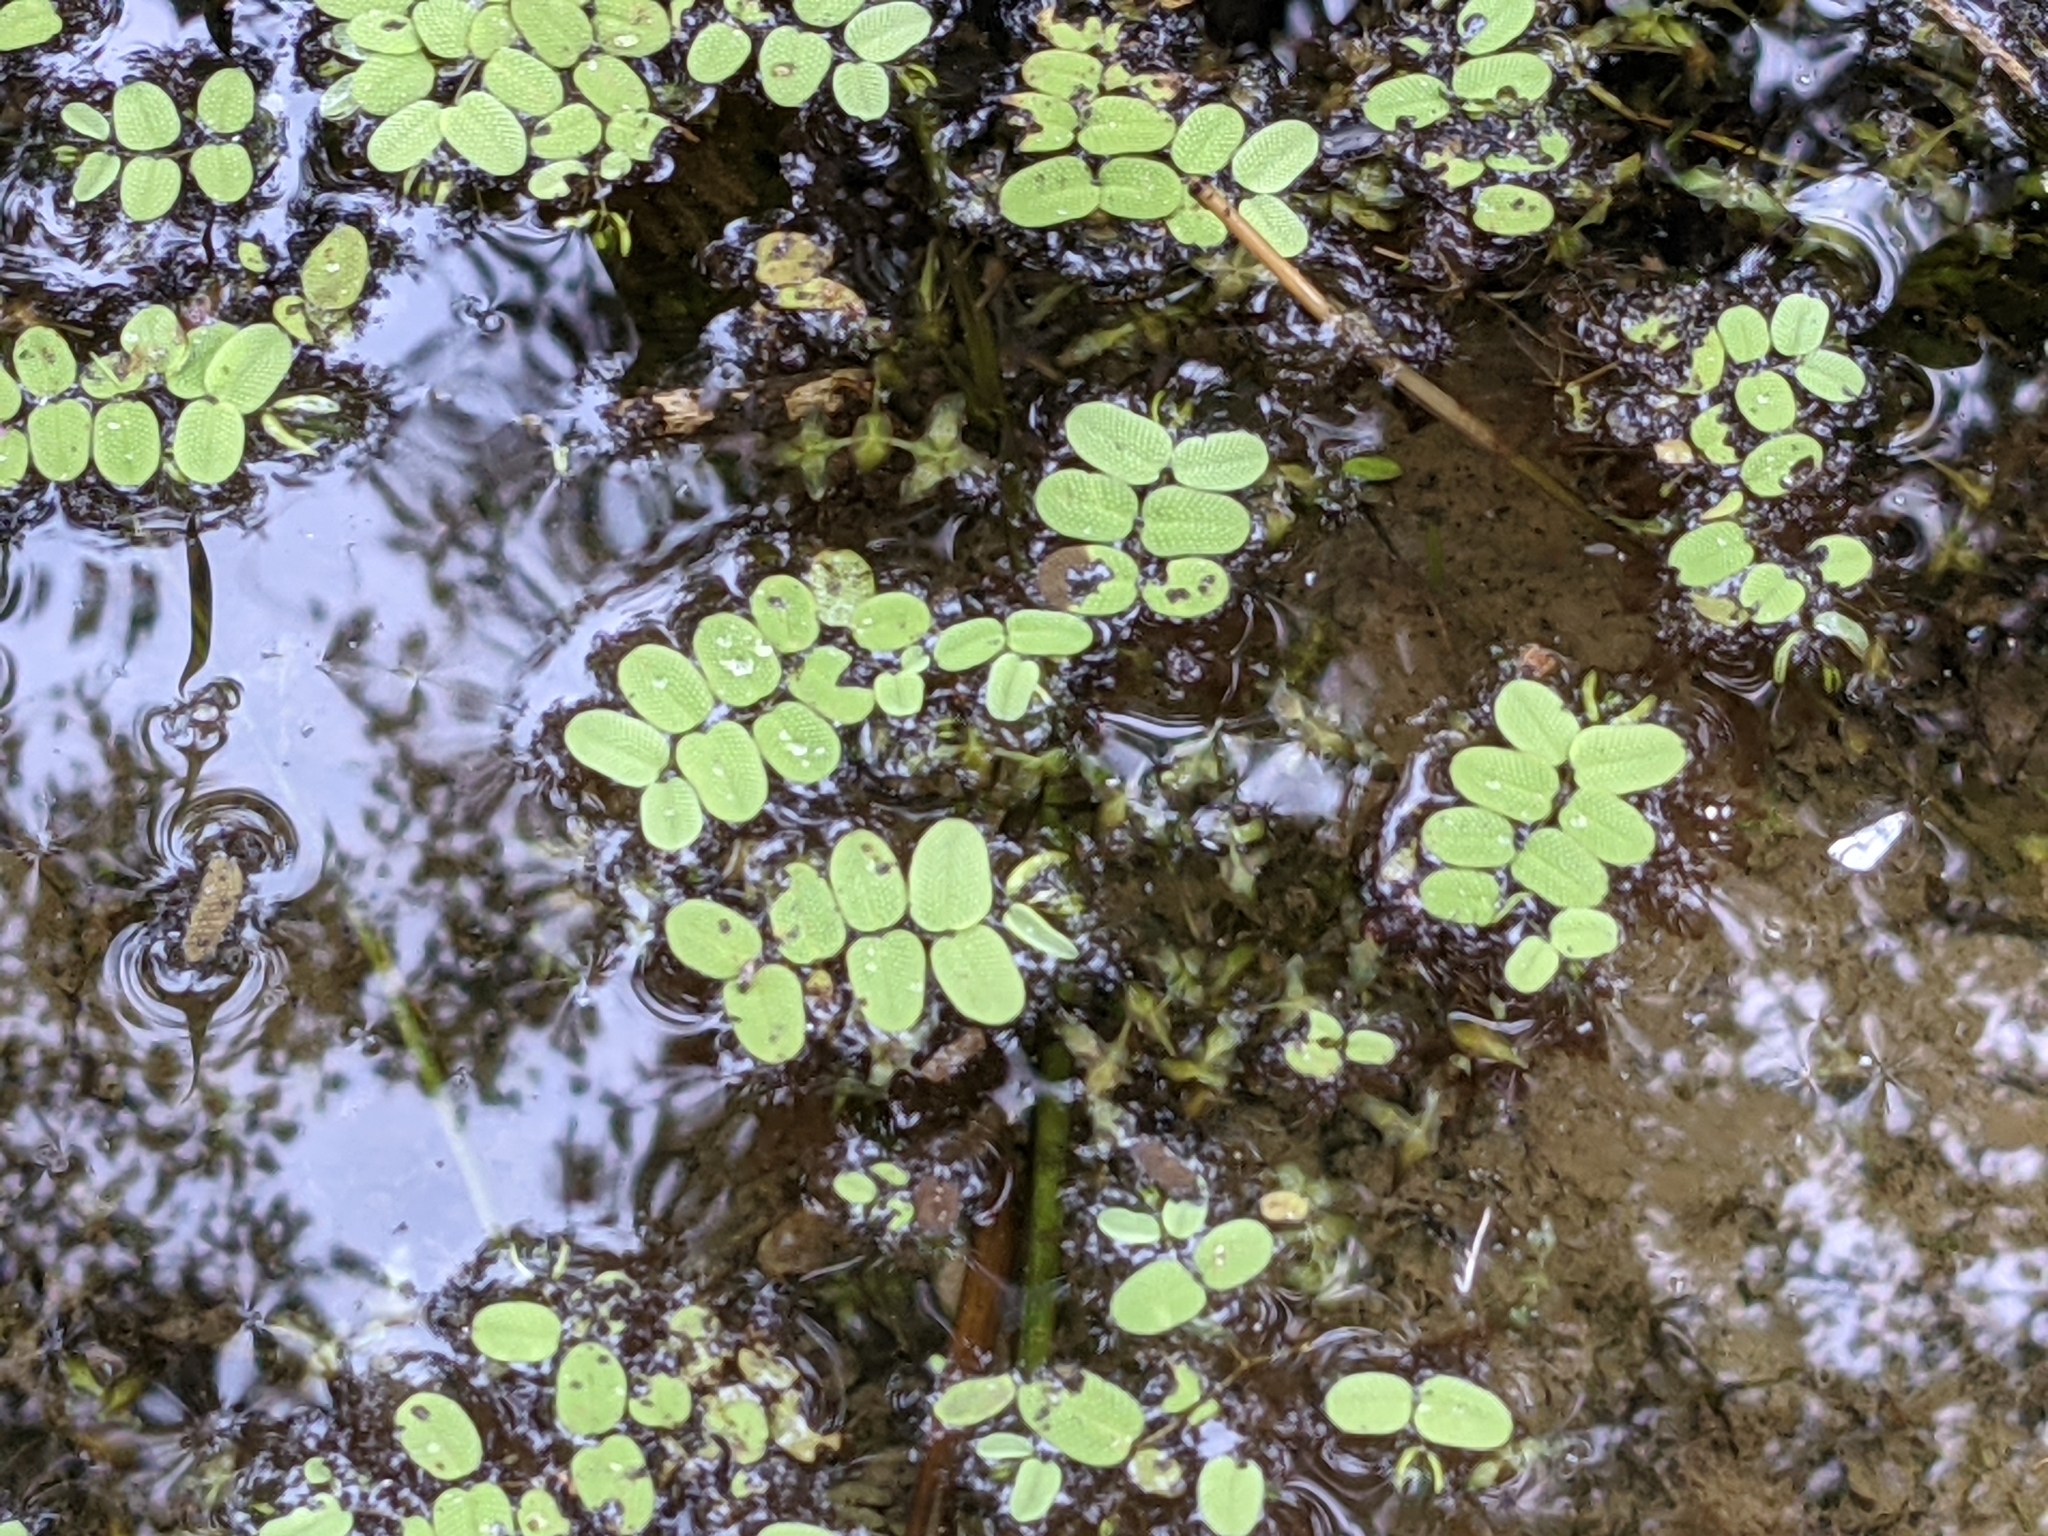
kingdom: Plantae
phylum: Tracheophyta
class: Polypodiopsida
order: Salviniales
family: Salviniaceae
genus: Salvinia
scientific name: Salvinia natans
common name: Floating fern
